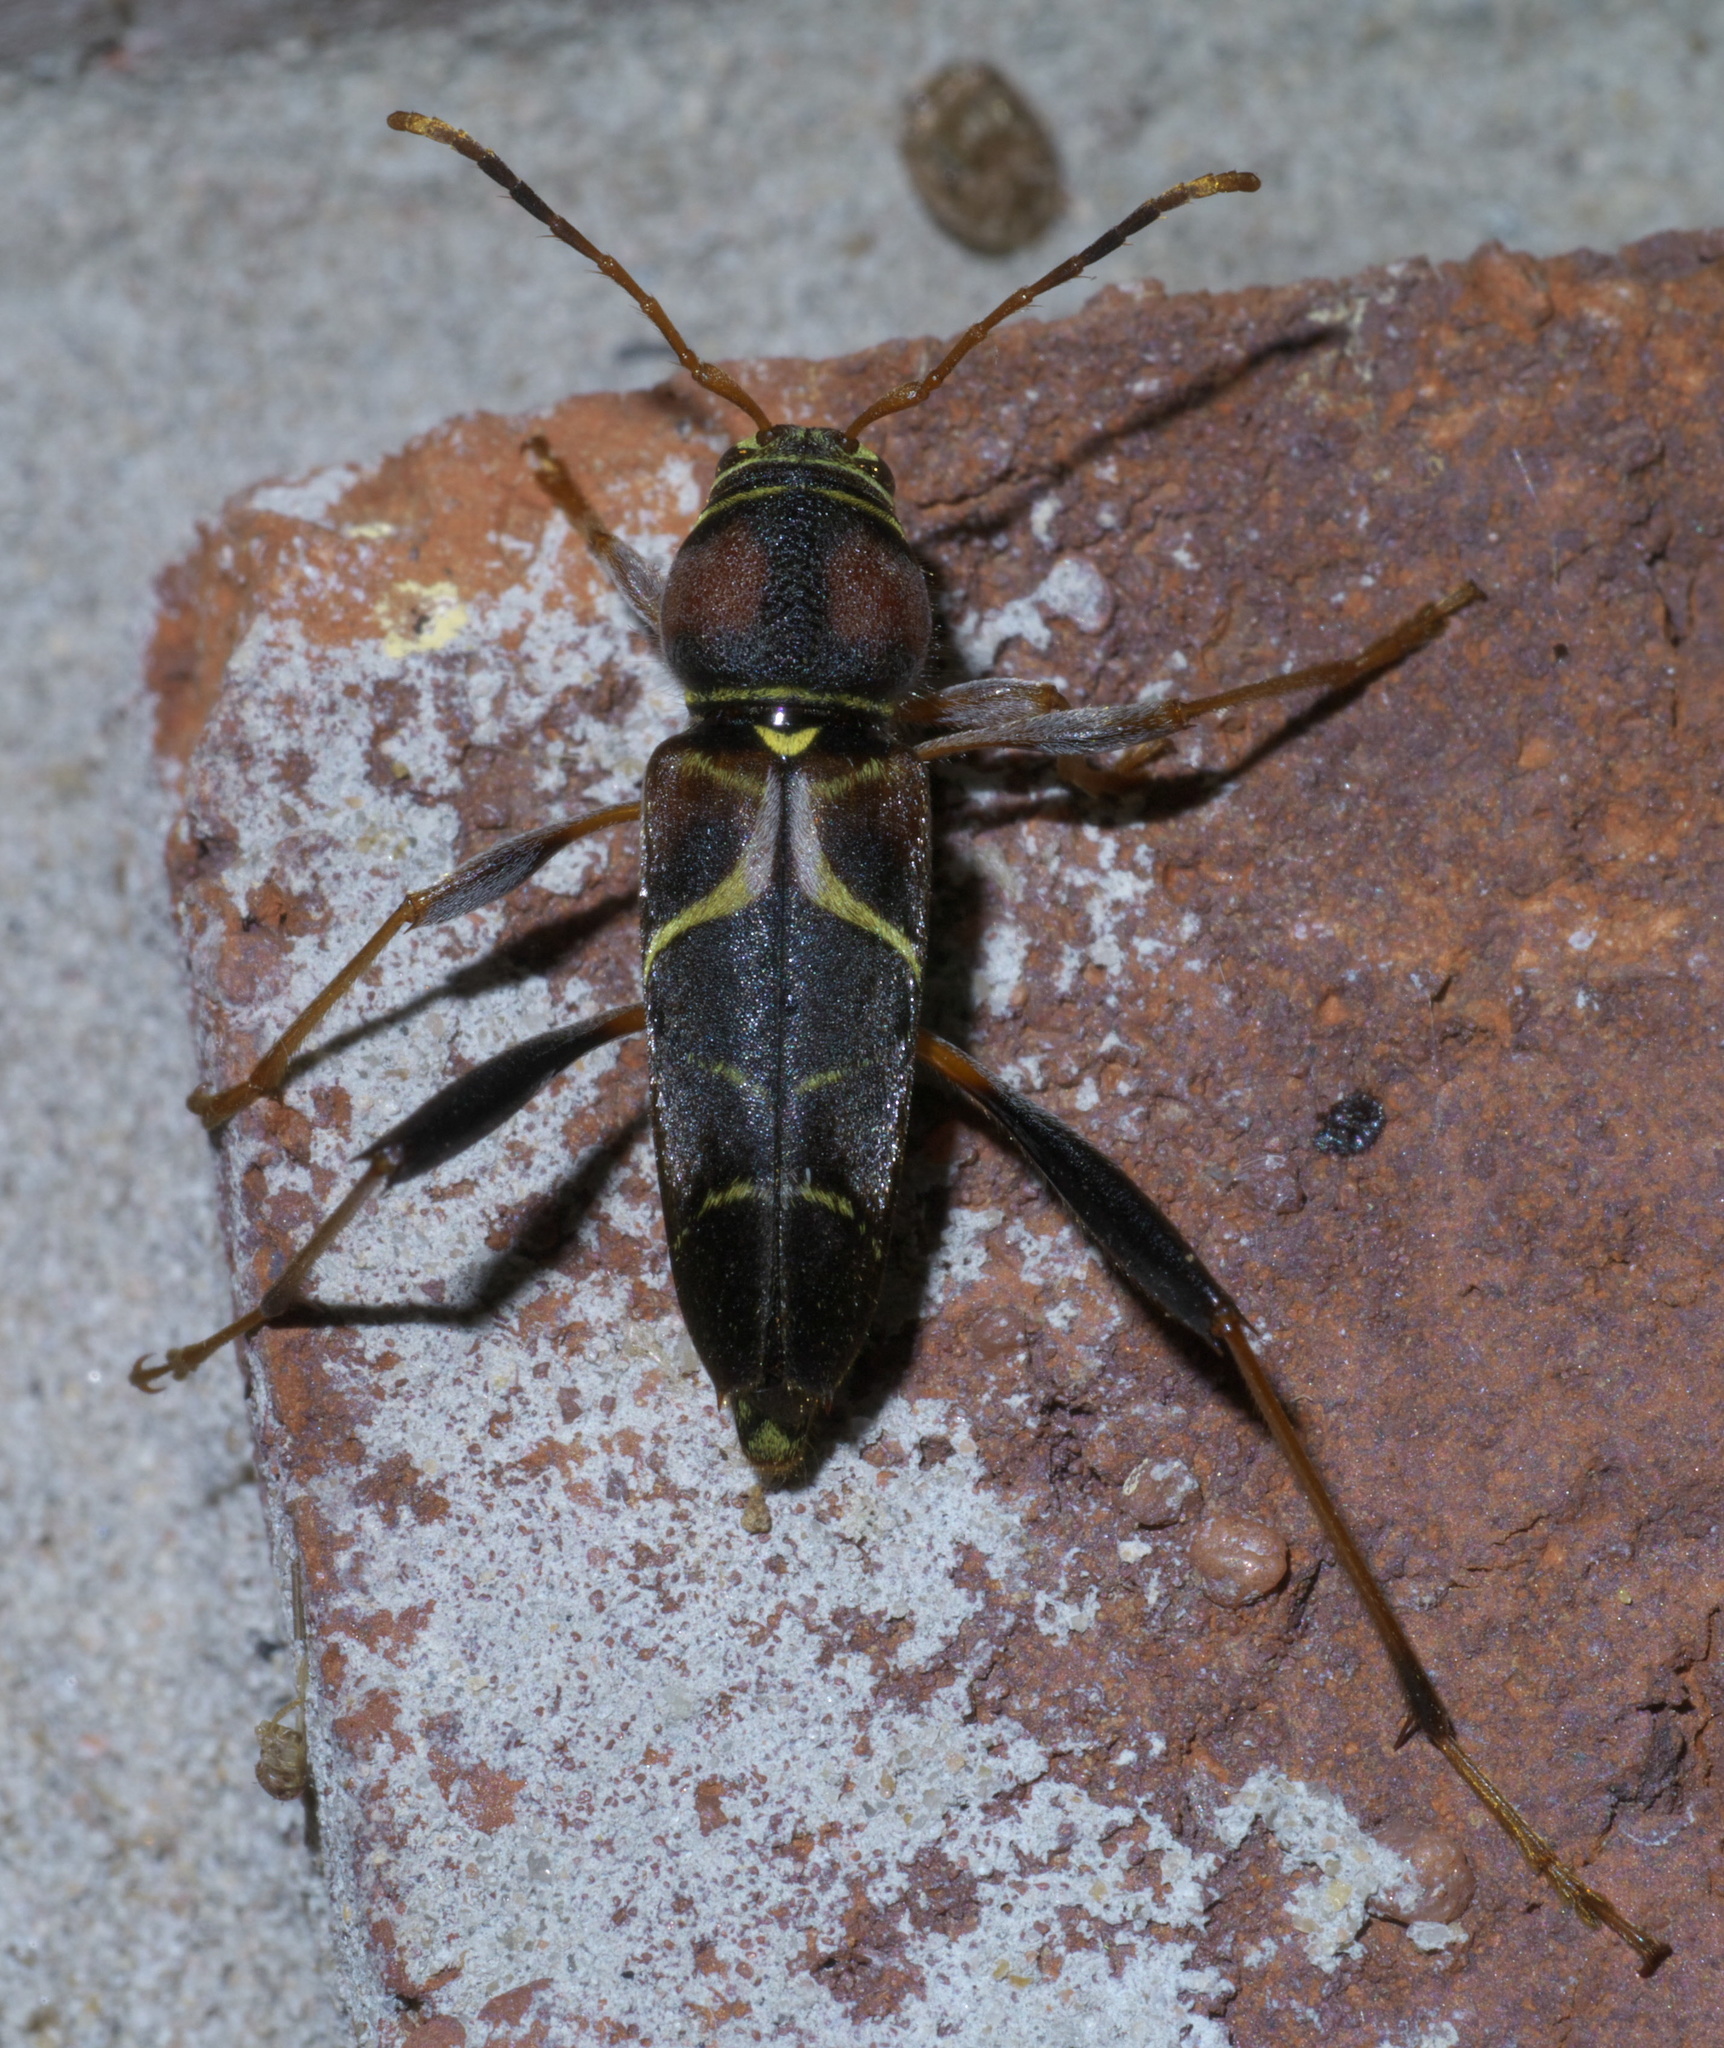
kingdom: Animalia
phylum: Arthropoda
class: Insecta
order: Coleoptera
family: Cerambycidae
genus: Neoclytus
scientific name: Neoclytus mucronatus
